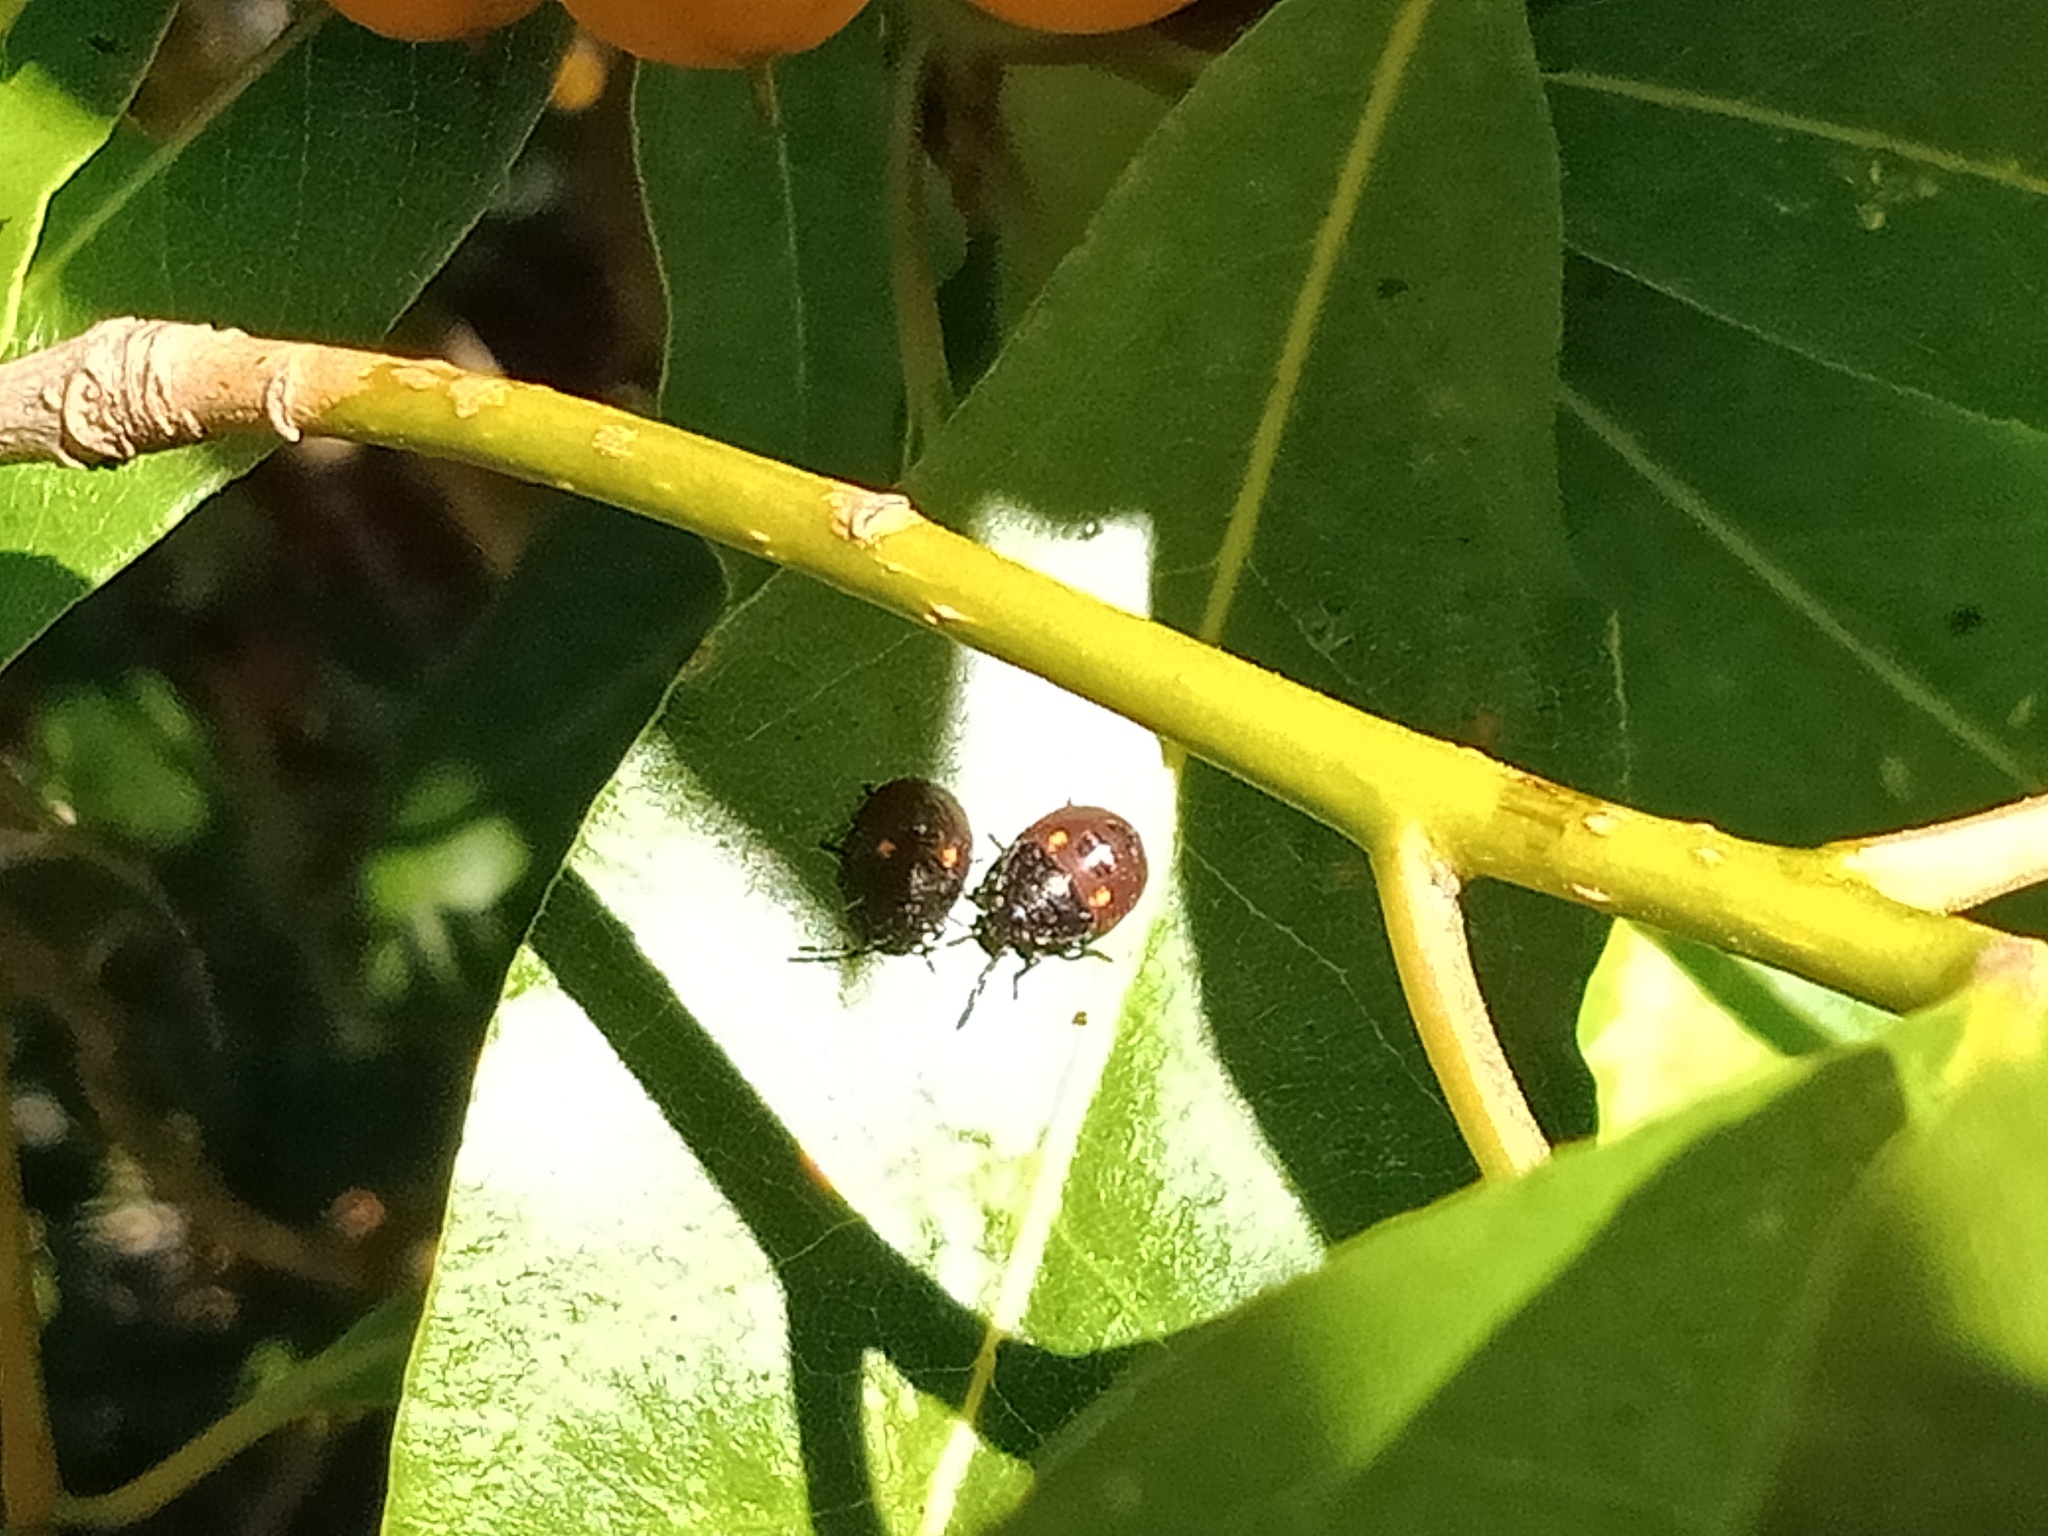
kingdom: Animalia
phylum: Arthropoda
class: Insecta
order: Hemiptera
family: Pentatomidae
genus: Monteithiella
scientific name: Monteithiella
